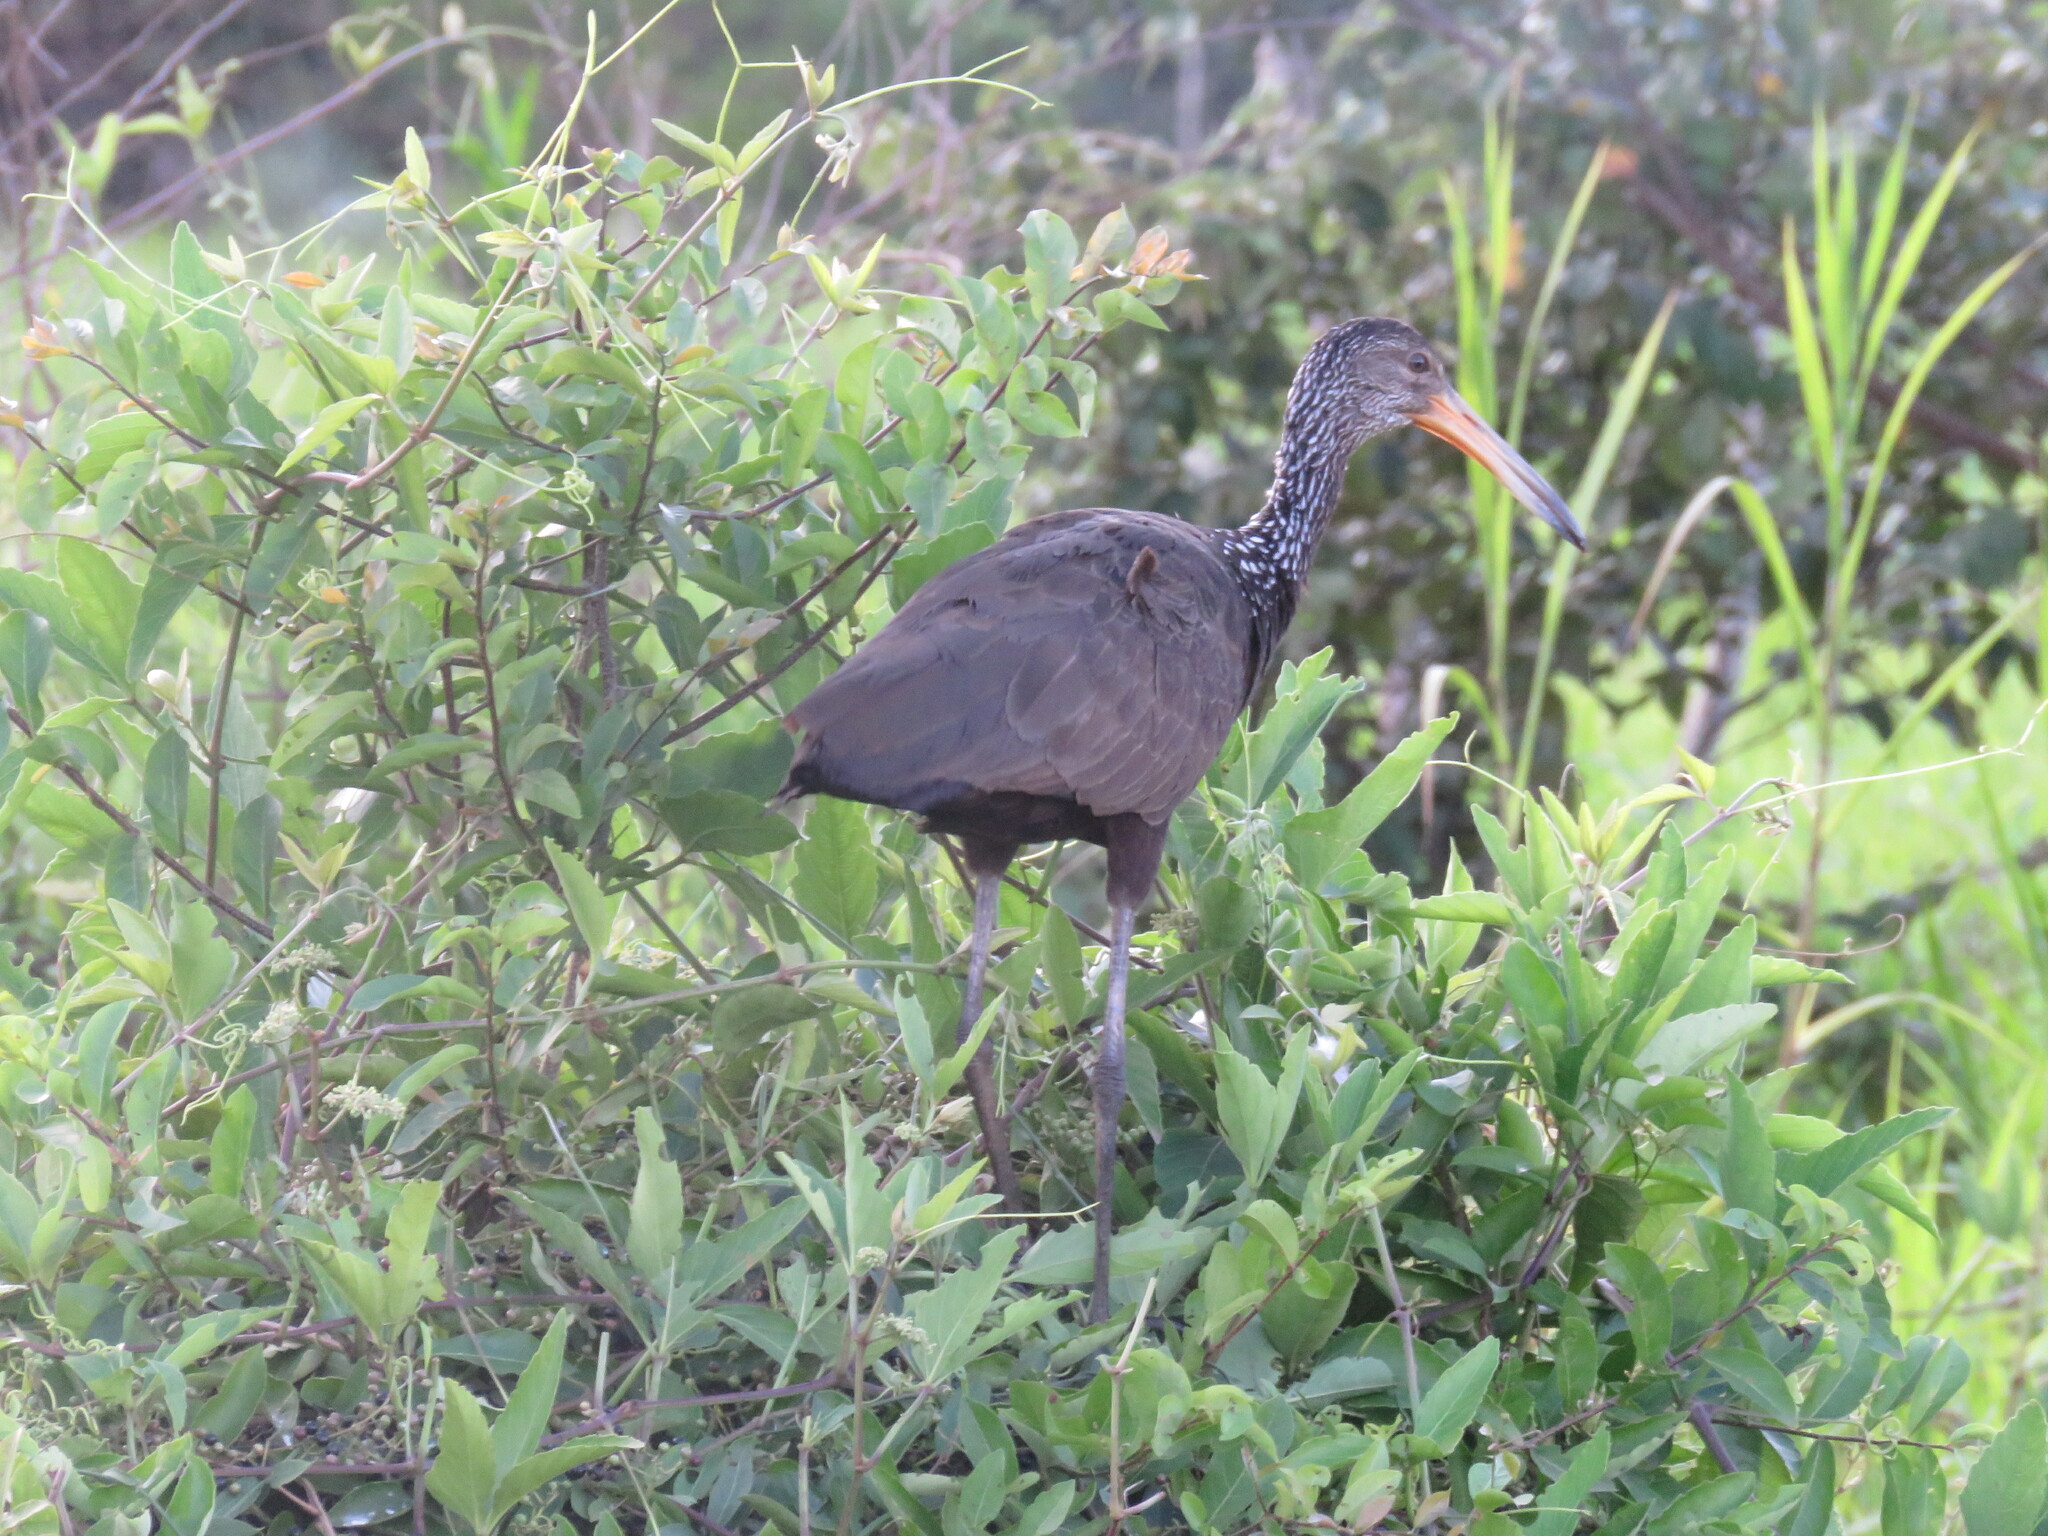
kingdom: Animalia
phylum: Chordata
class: Aves
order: Gruiformes
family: Aramidae
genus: Aramus
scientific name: Aramus guarauna
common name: Limpkin
